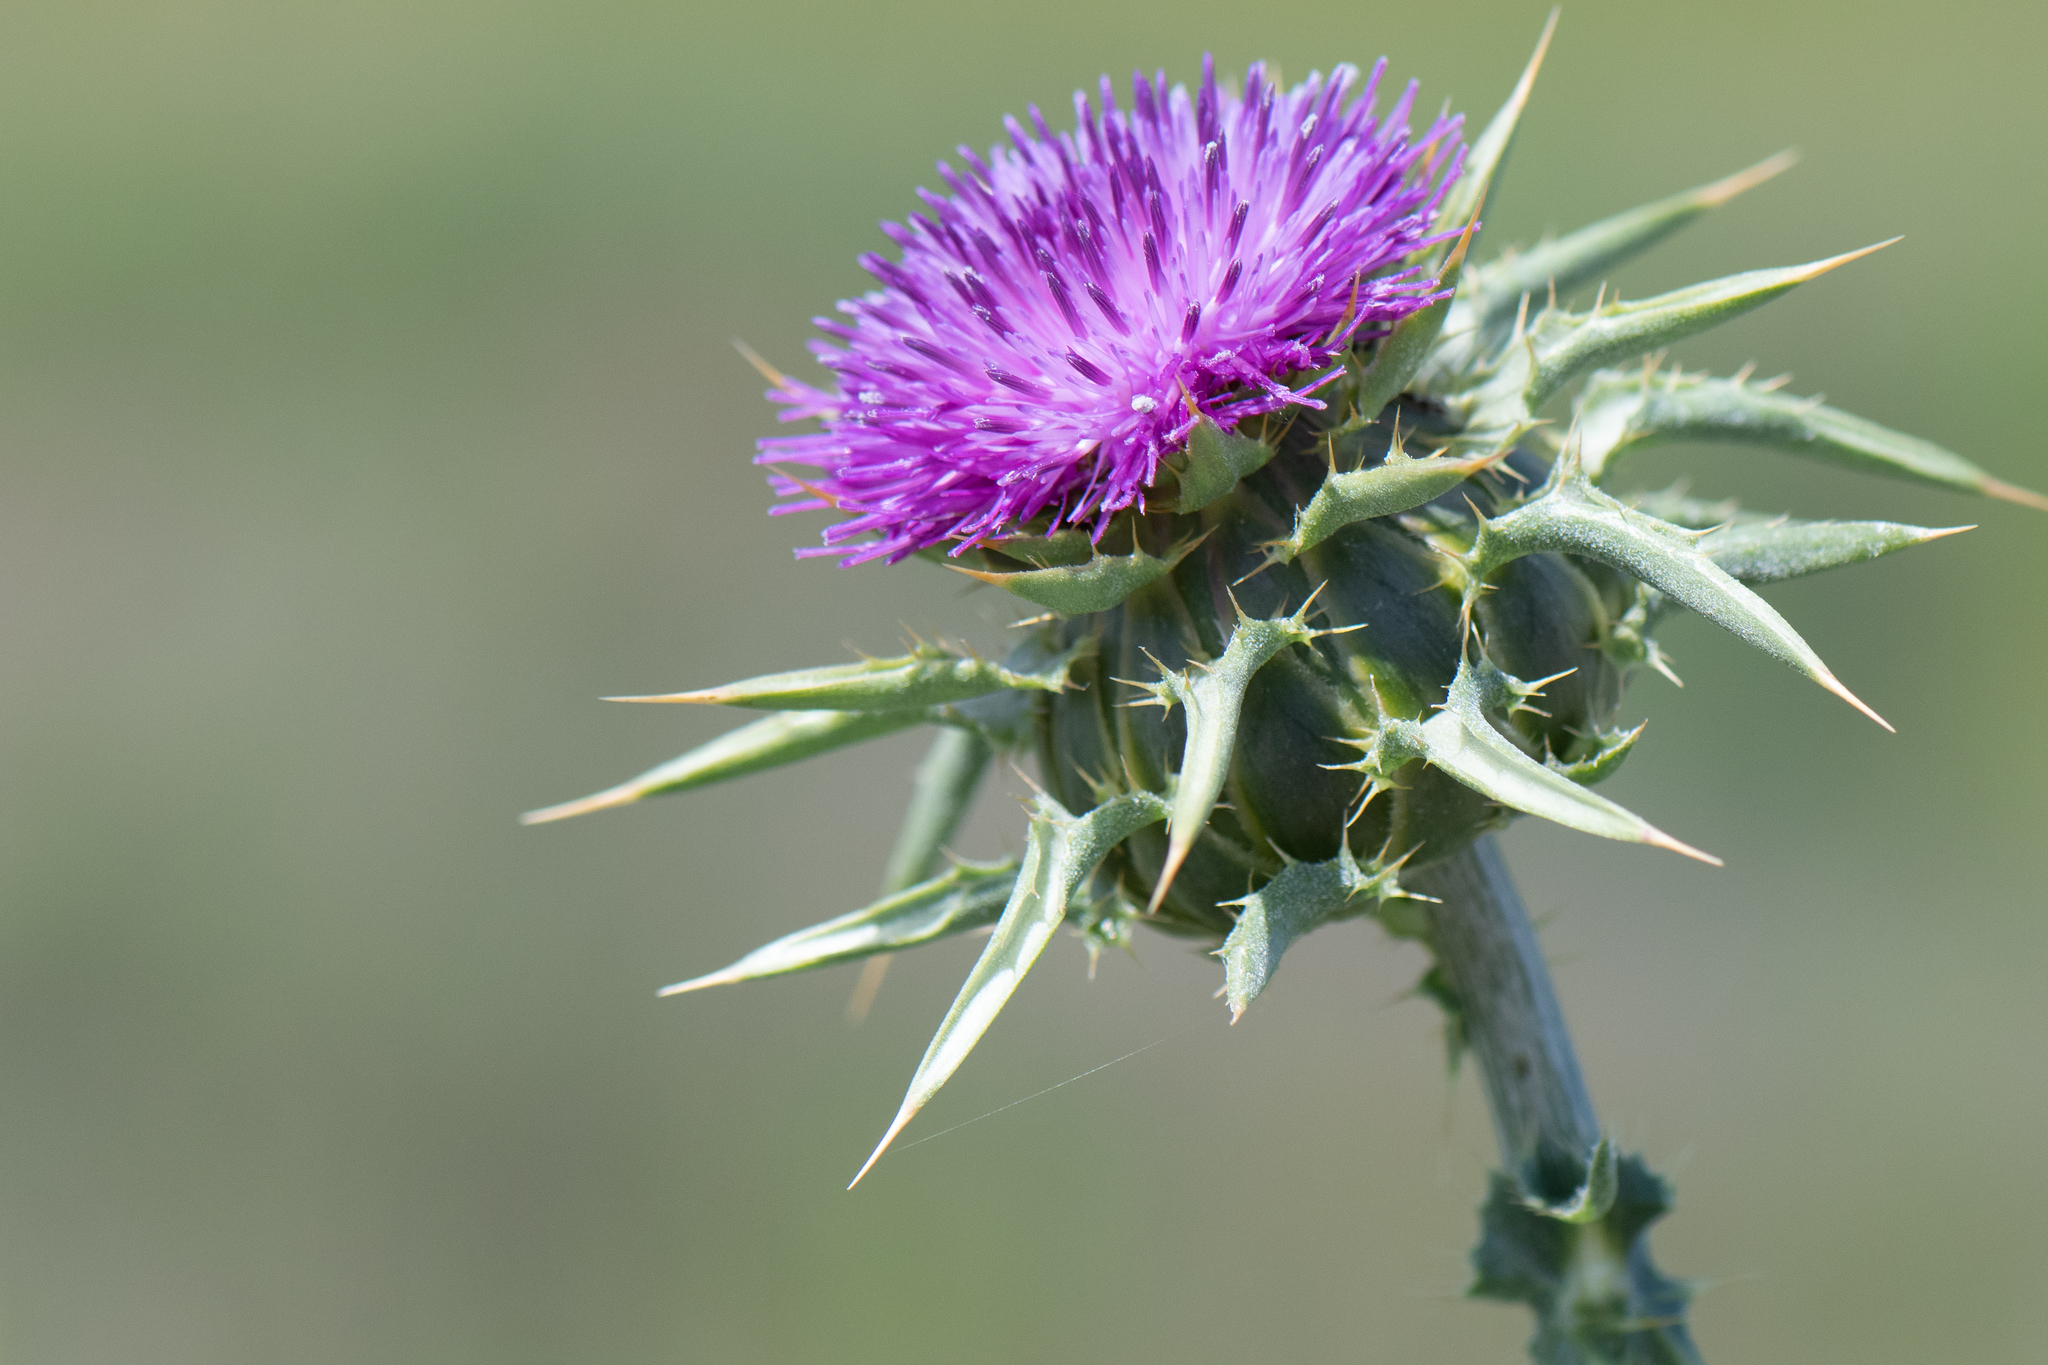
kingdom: Plantae
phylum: Tracheophyta
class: Magnoliopsida
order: Asterales
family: Asteraceae
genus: Silybum
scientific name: Silybum marianum
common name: Milk thistle
